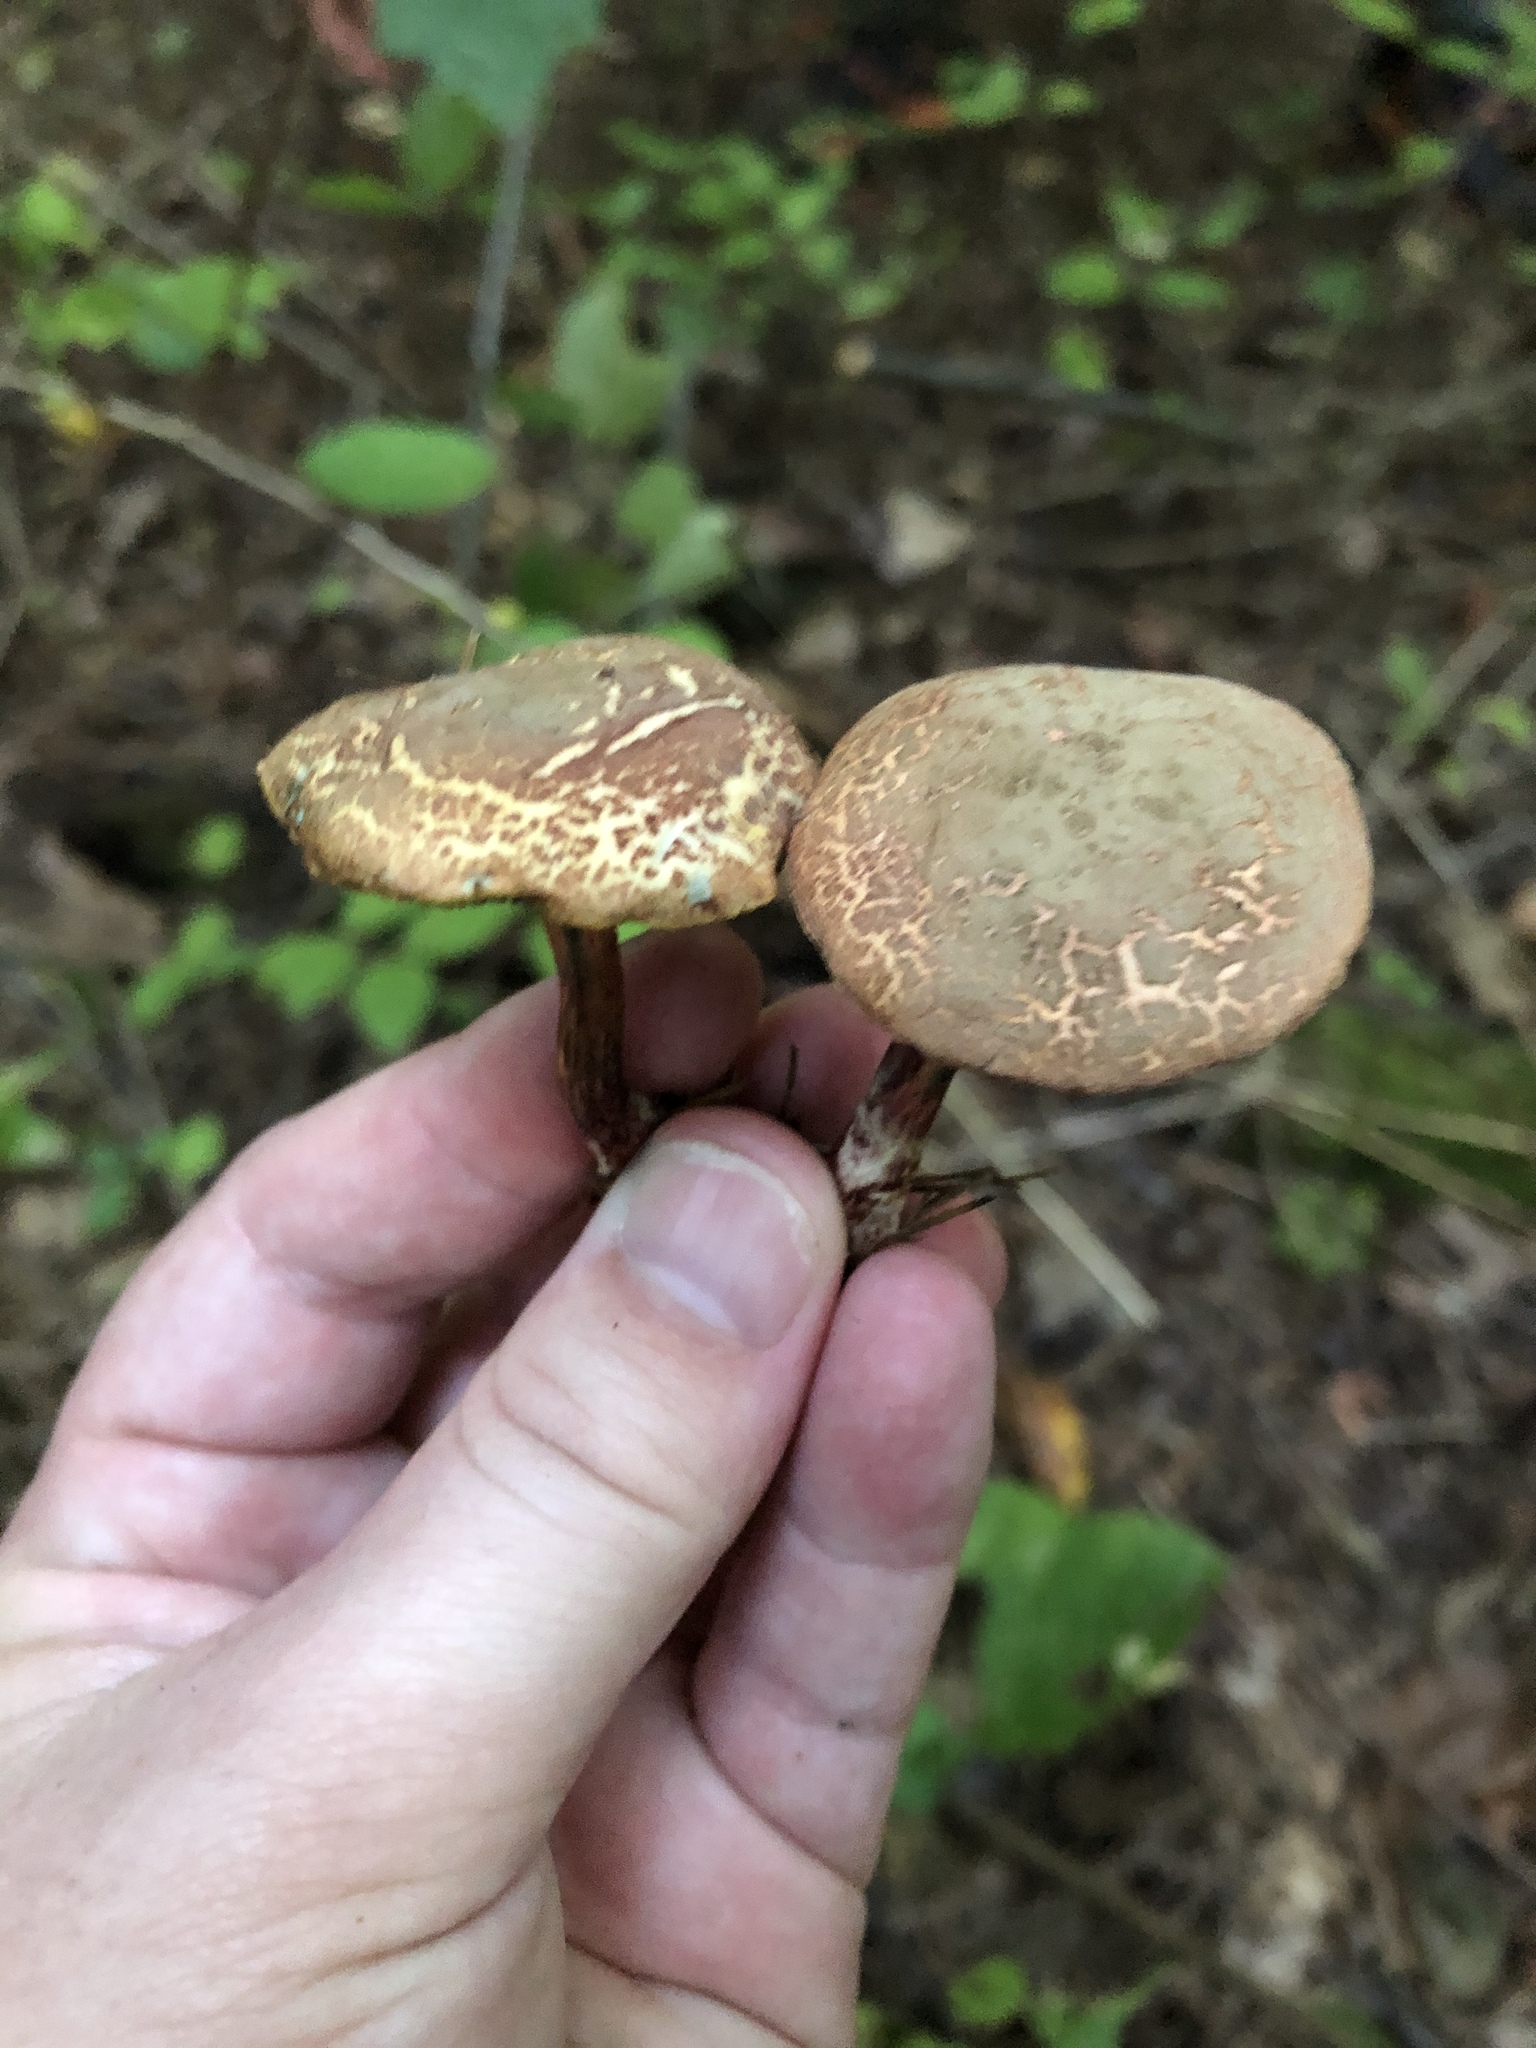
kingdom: Fungi
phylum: Basidiomycota
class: Agaricomycetes
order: Boletales
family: Boletaceae
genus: Xerocomellus
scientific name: Xerocomellus chrysenteron
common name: Red-cracking bolete
